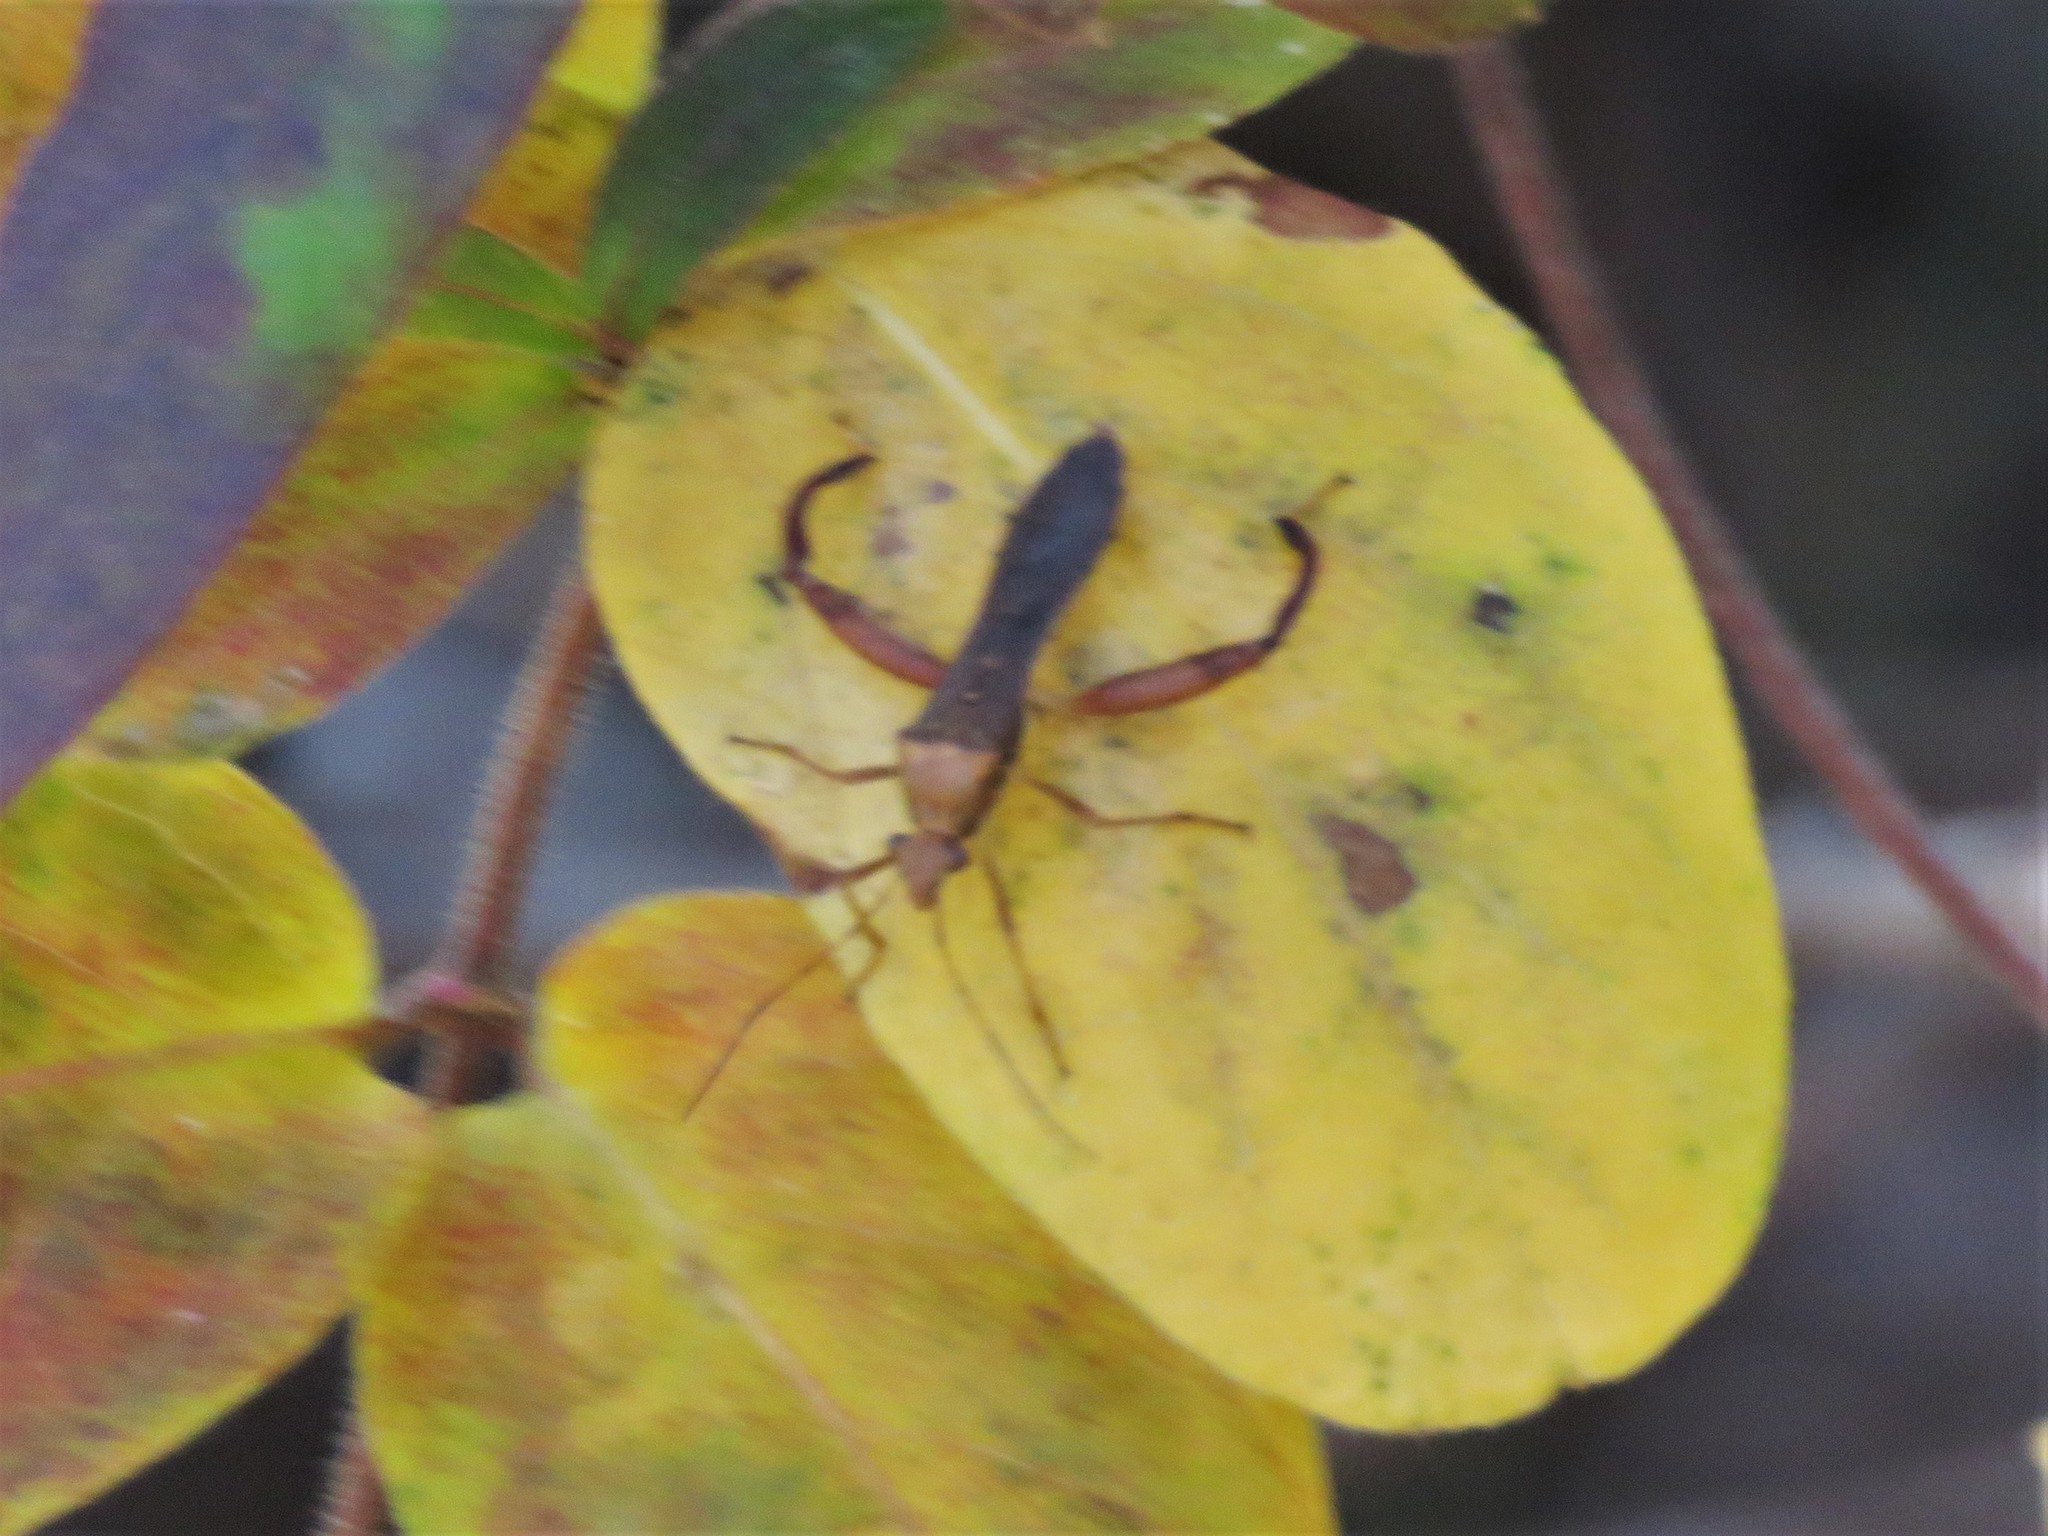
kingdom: Animalia
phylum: Arthropoda
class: Insecta
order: Hemiptera
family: Alydidae
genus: Hyalymenus
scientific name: Hyalymenus tarsatus
